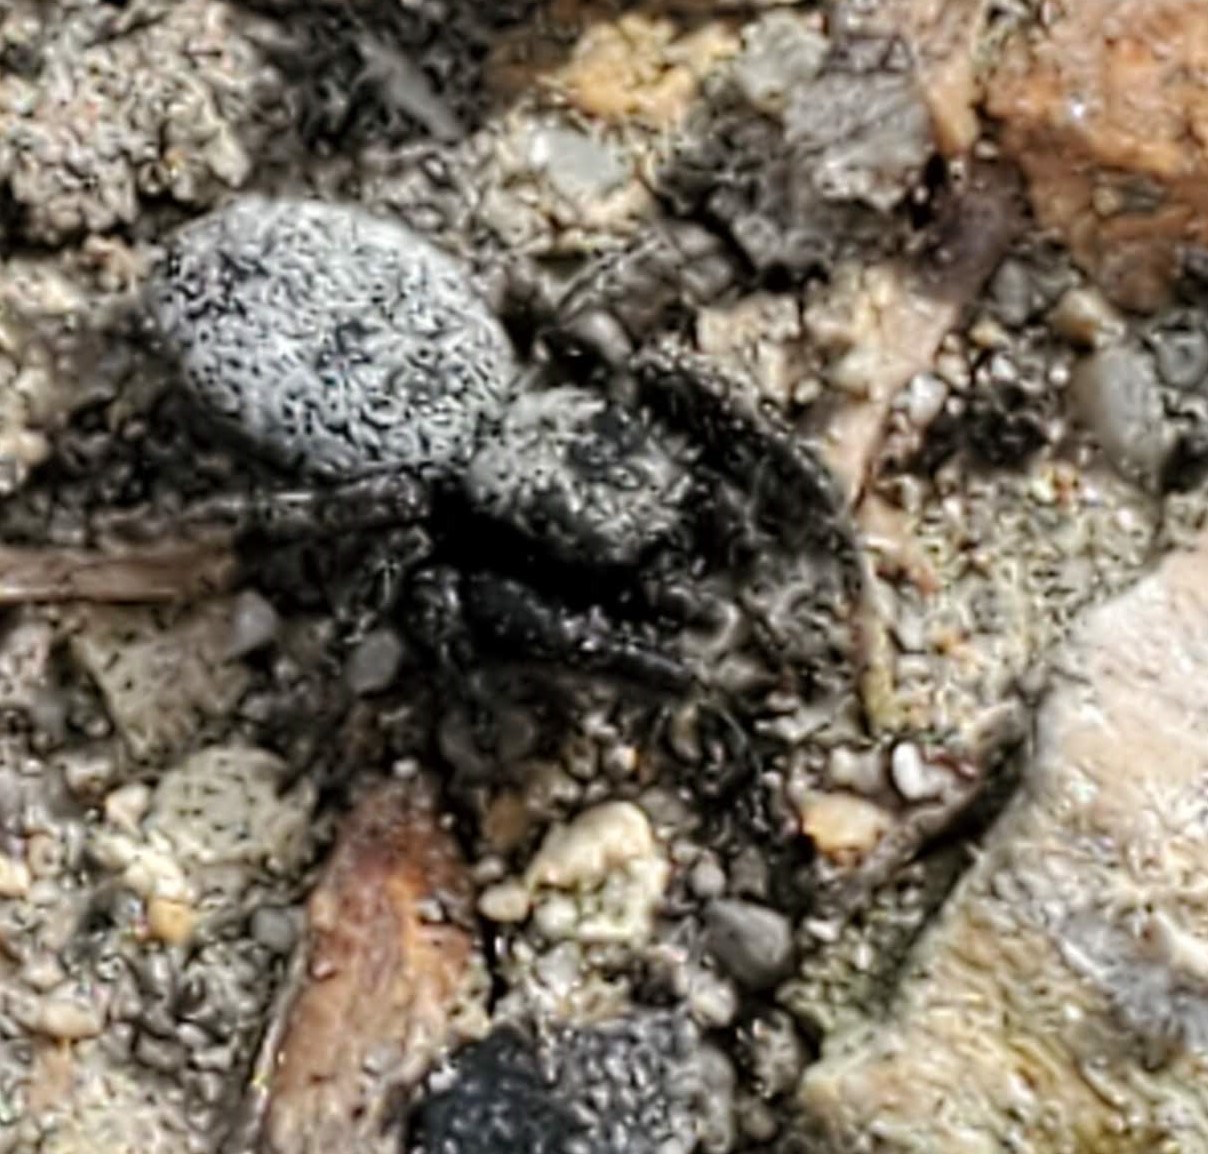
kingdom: Animalia
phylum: Arthropoda
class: Arachnida
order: Araneae
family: Salticidae
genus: Terralonus
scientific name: Terralonus californicus
